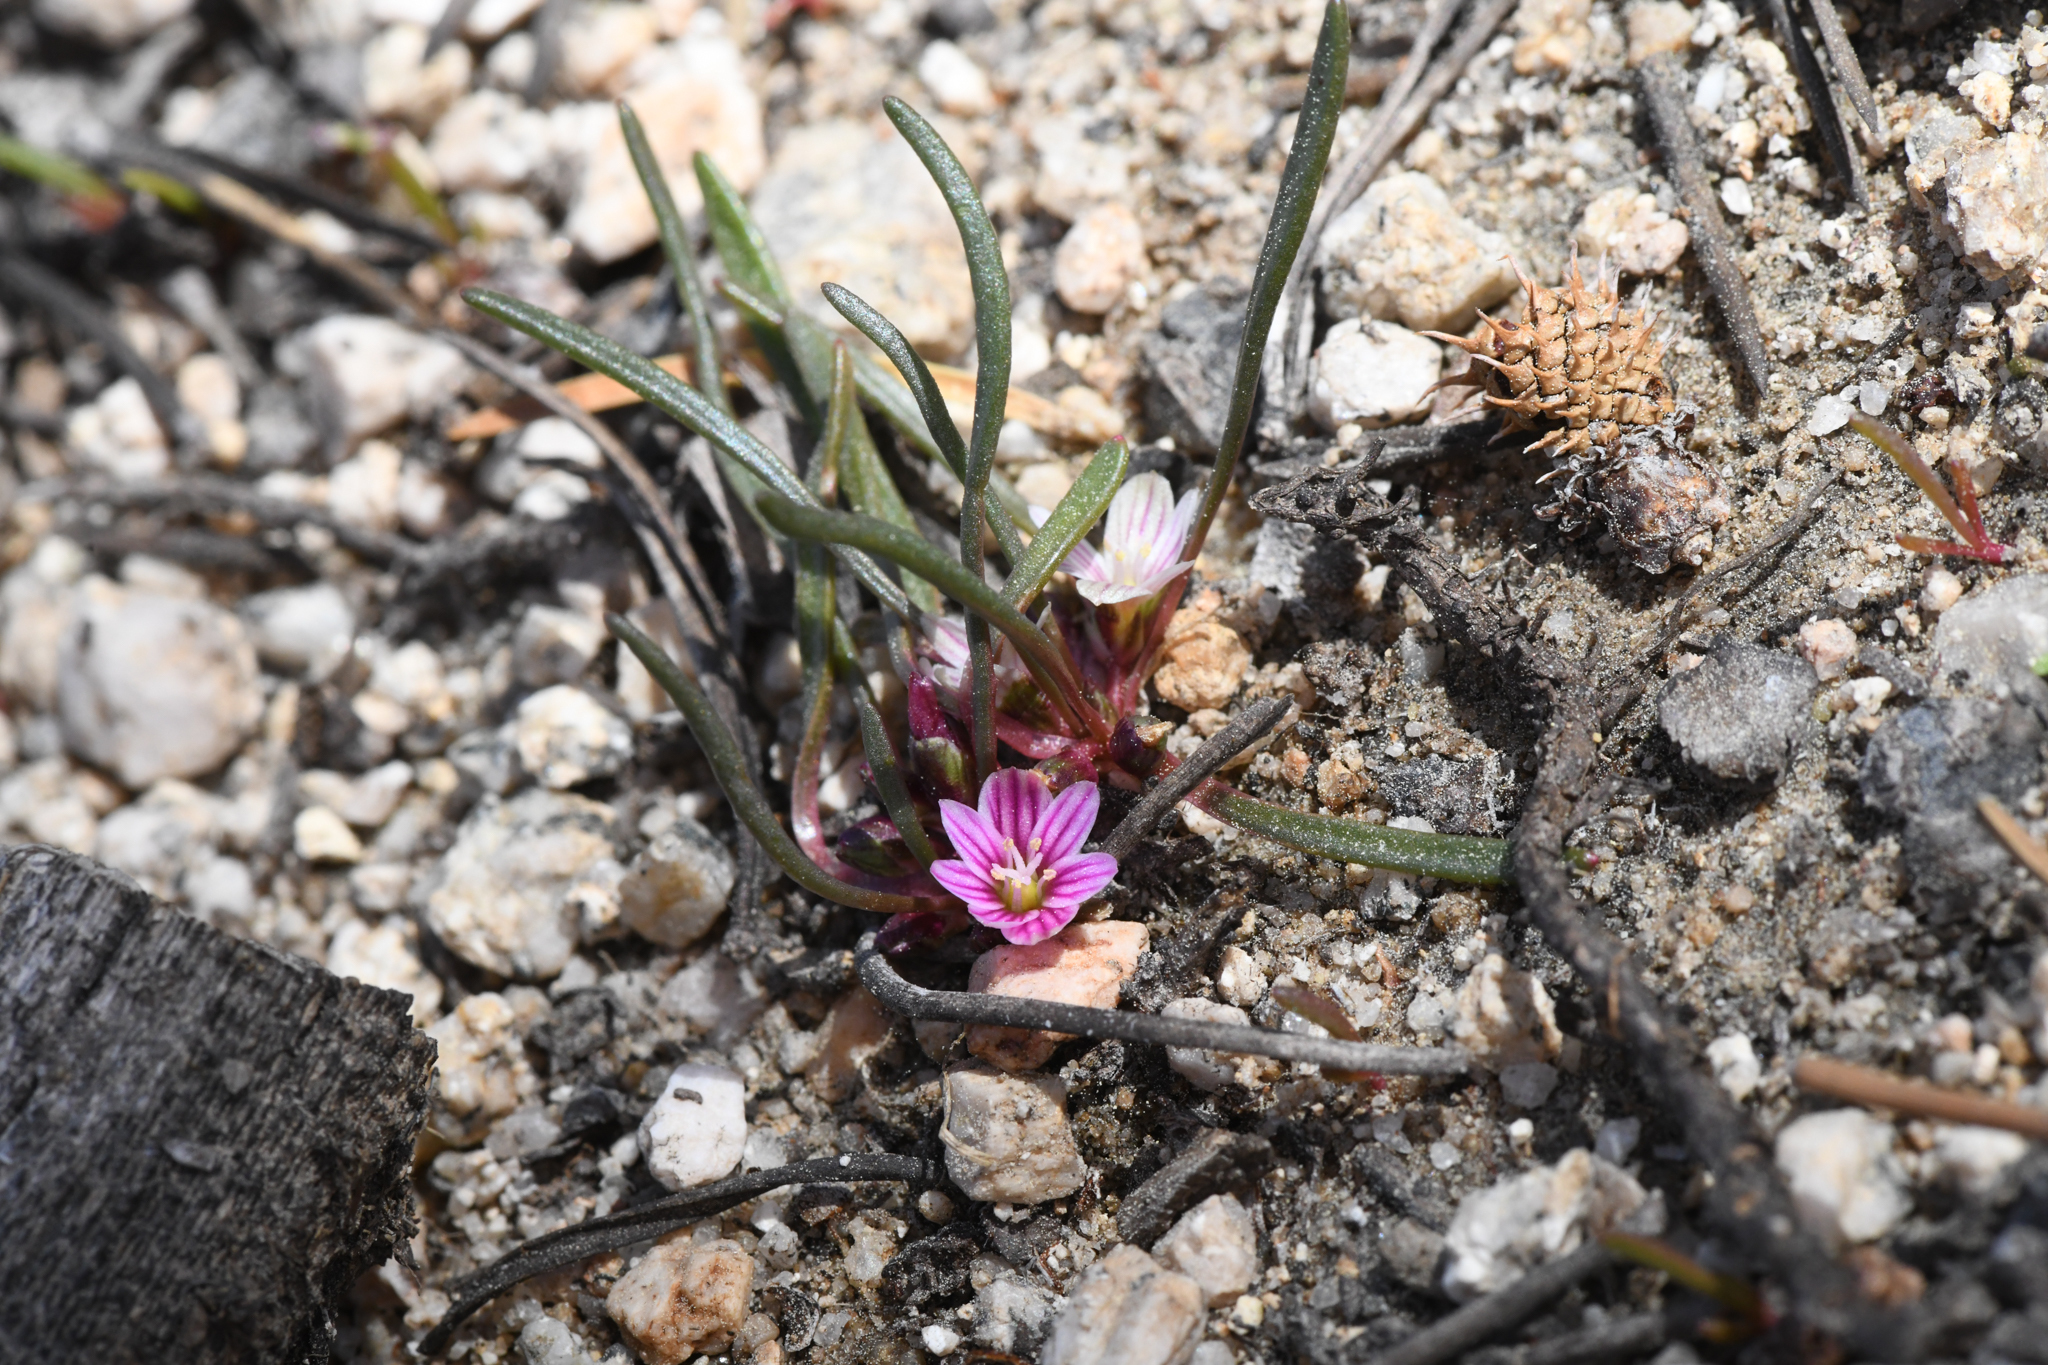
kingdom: Plantae
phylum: Tracheophyta
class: Magnoliopsida
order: Caryophyllales
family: Montiaceae
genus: Lewisia
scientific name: Lewisia pygmaea
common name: Alpine bitterroot
